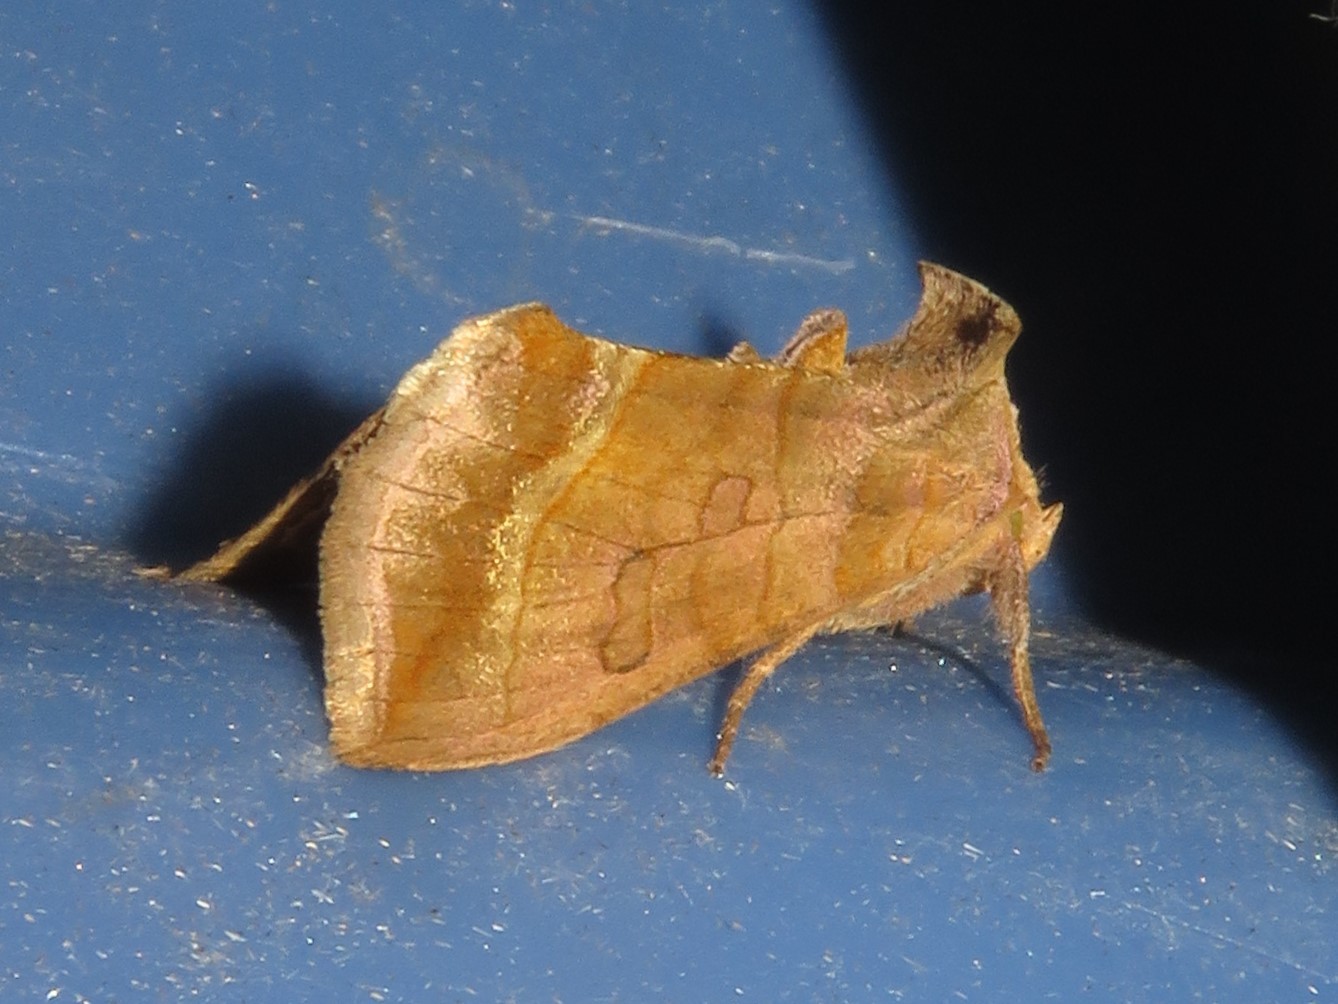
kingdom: Animalia
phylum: Arthropoda
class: Insecta
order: Lepidoptera
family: Noctuidae
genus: Diachrysia
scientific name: Diachrysia aereoides
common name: Dark-spotted looper moth
